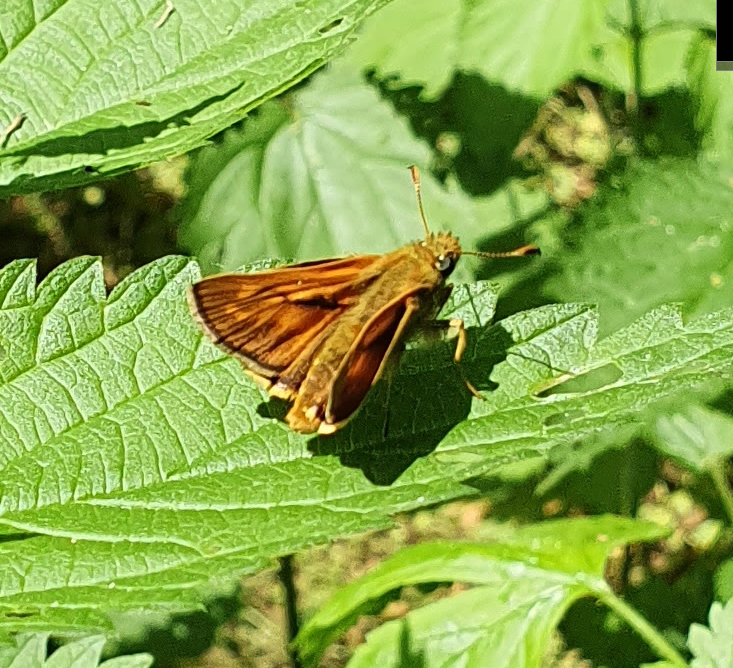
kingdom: Animalia
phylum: Arthropoda
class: Insecta
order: Lepidoptera
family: Hesperiidae
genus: Ochlodes
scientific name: Ochlodes venata
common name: Large skipper
